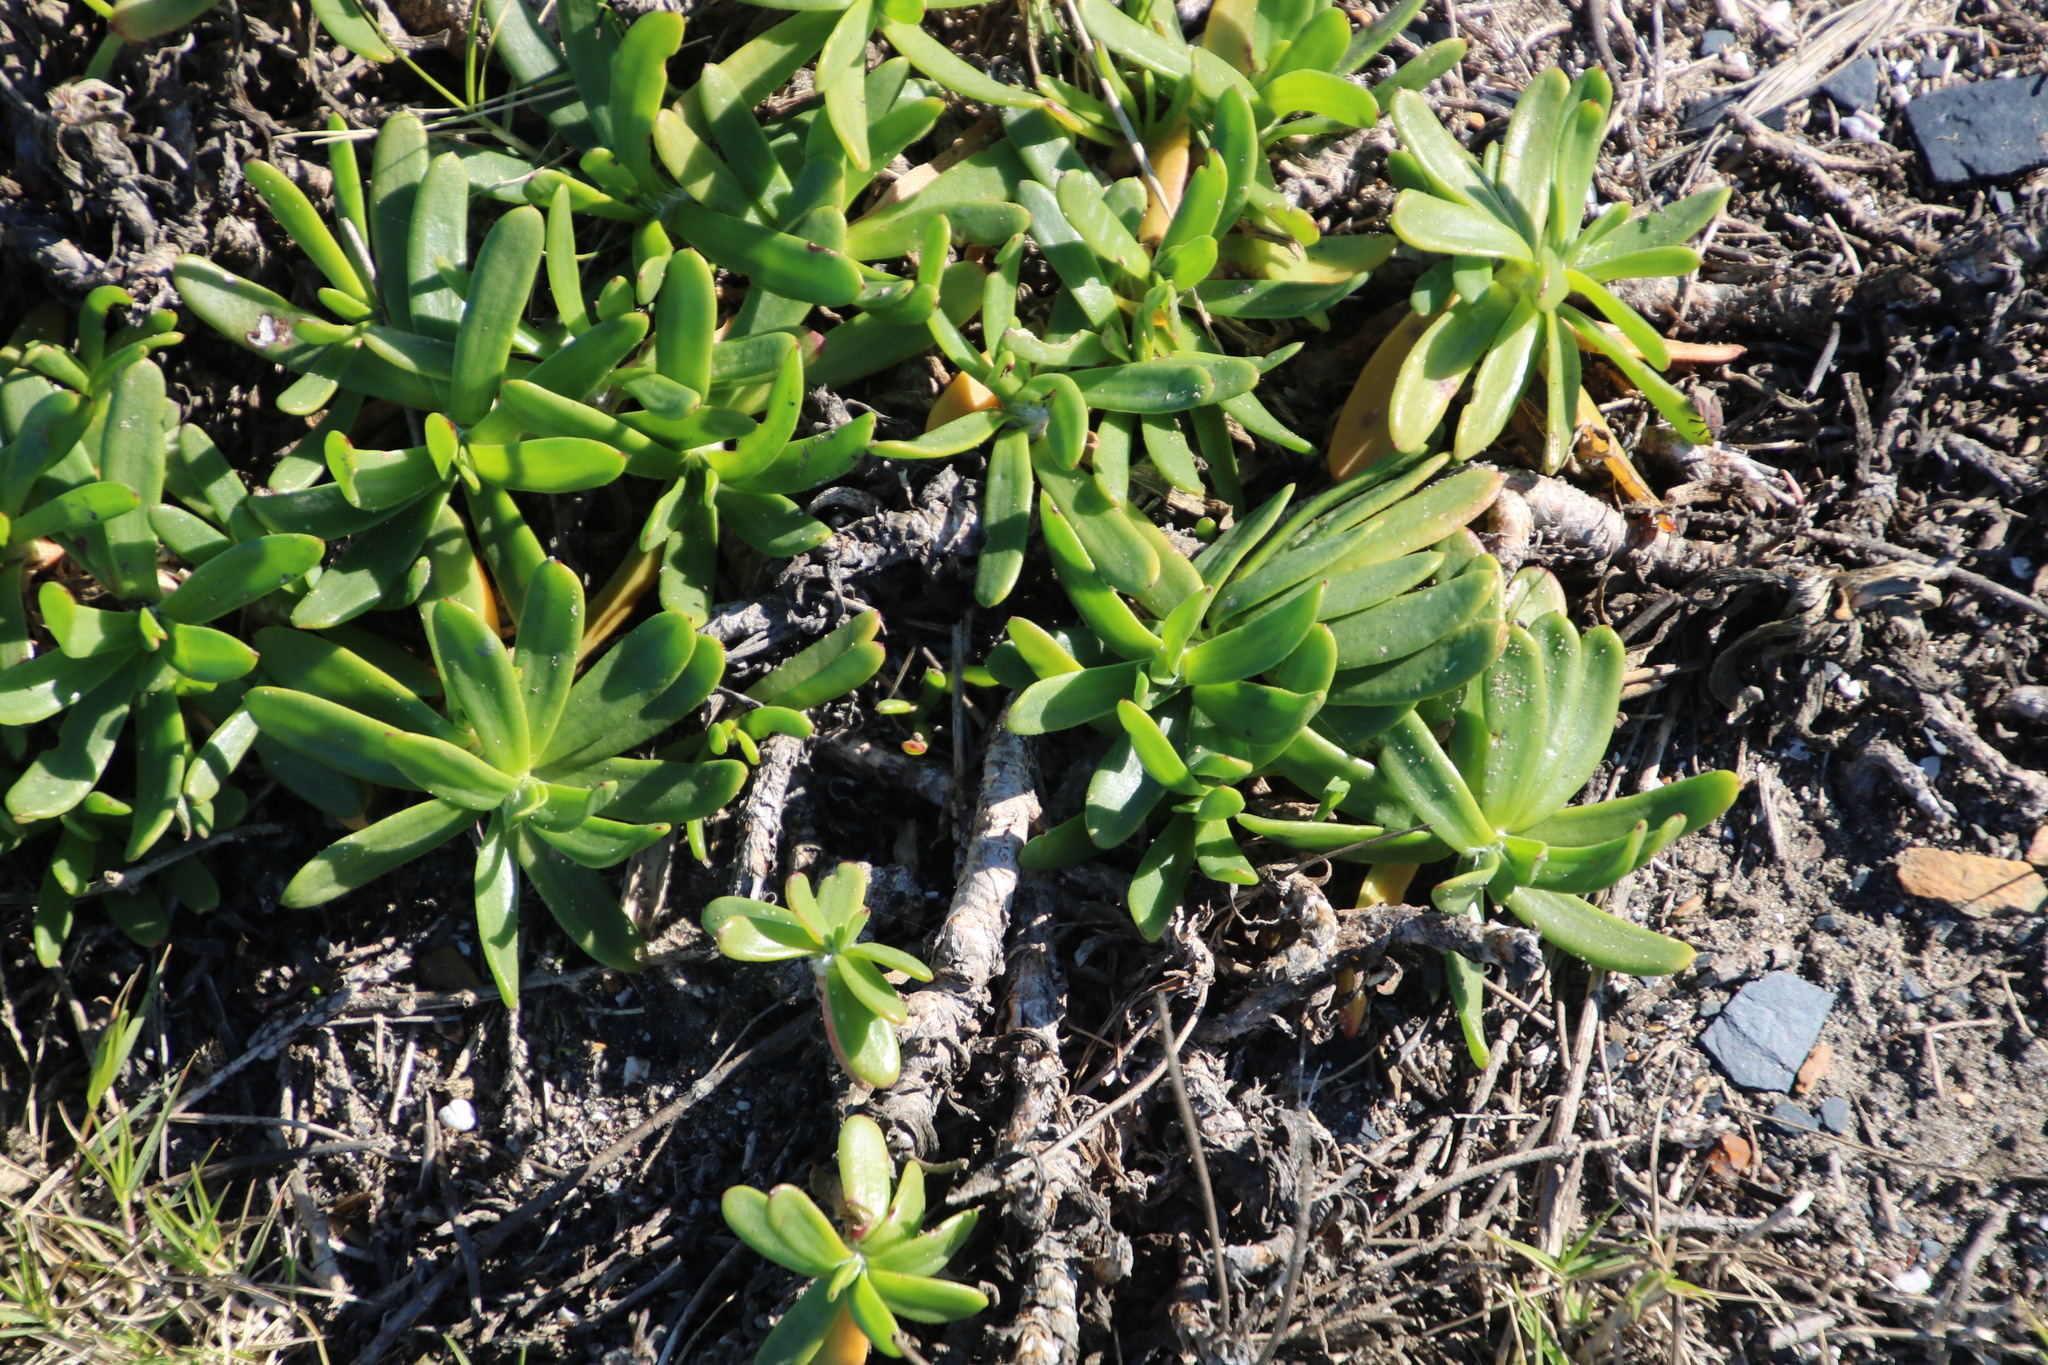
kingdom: Plantae
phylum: Tracheophyta
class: Magnoliopsida
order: Lamiales
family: Plantaginaceae
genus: Plantago
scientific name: Plantago carnosa
